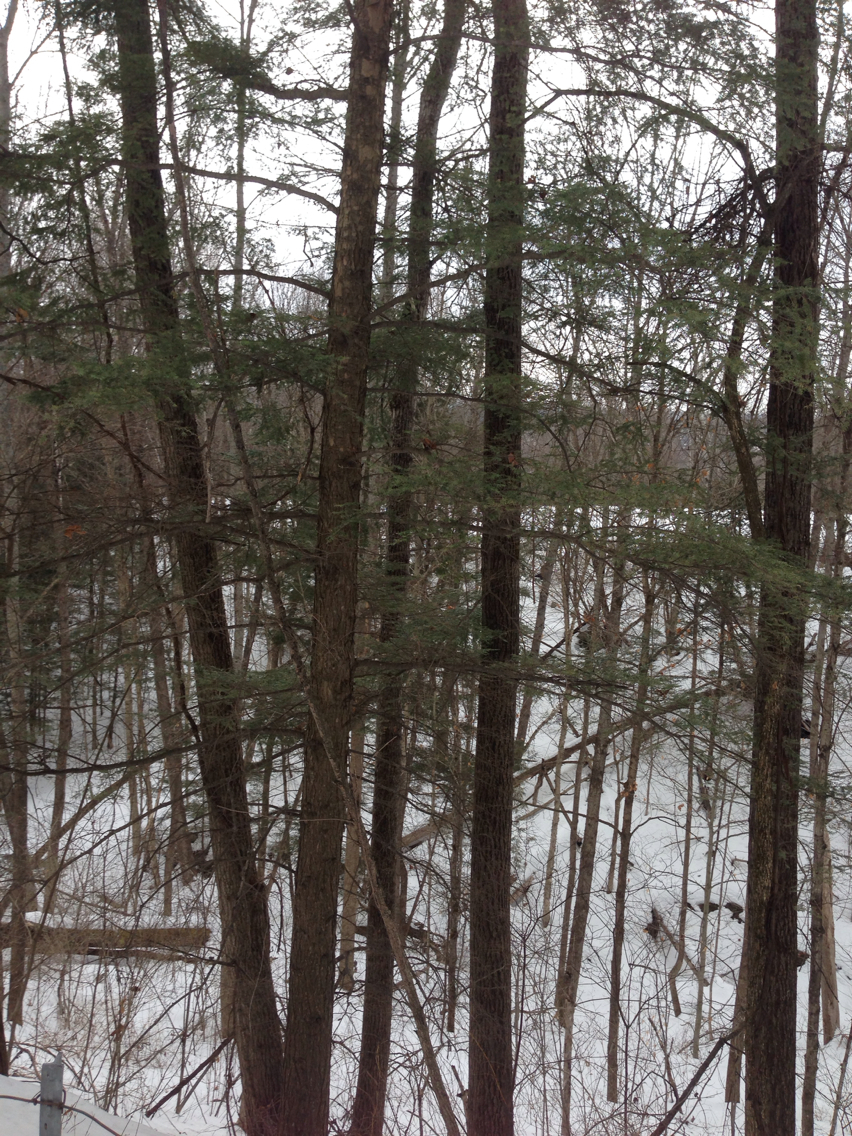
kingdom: Plantae
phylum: Tracheophyta
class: Pinopsida
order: Pinales
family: Pinaceae
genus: Tsuga
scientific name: Tsuga canadensis
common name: Eastern hemlock
